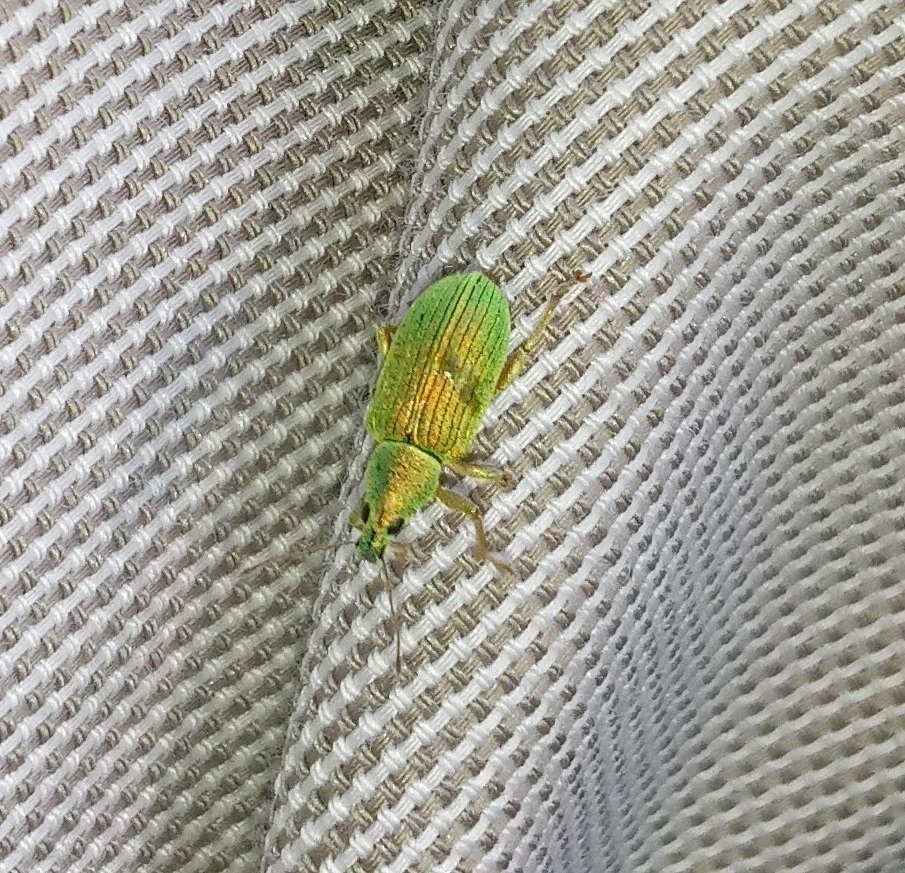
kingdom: Animalia
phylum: Arthropoda
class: Insecta
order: Coleoptera
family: Curculionidae
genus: Polydrusus
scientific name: Polydrusus formosus
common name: Weevil
